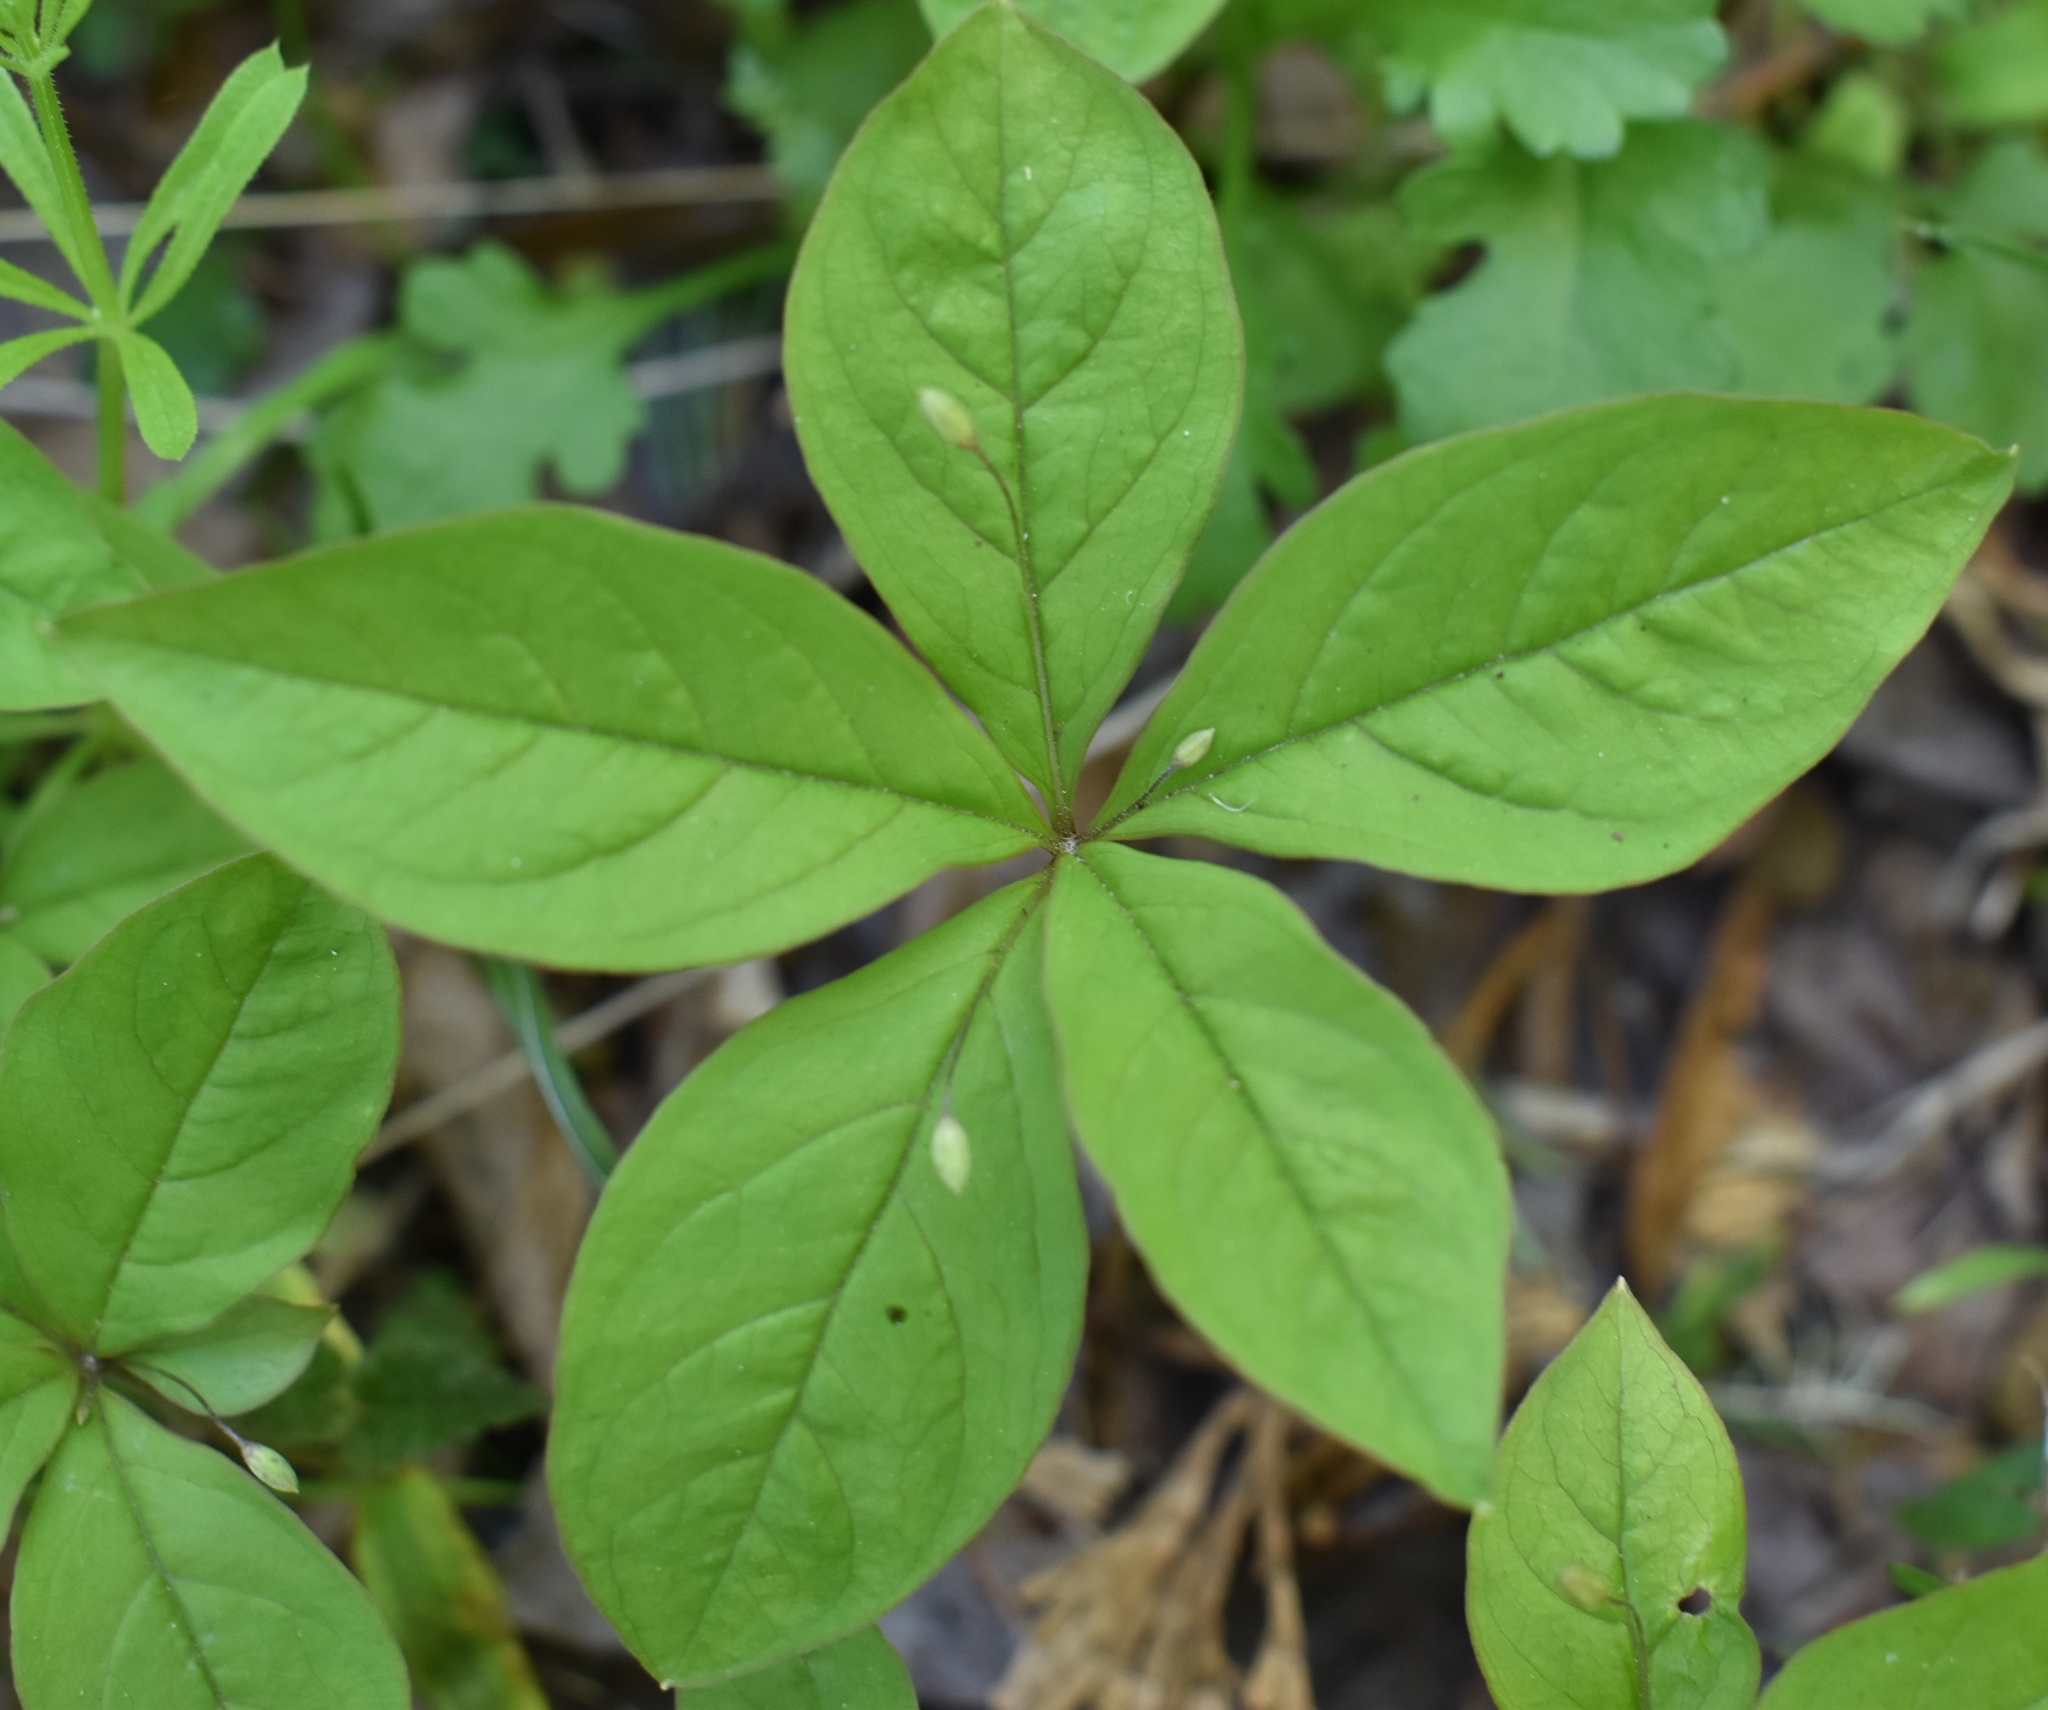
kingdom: Plantae
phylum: Tracheophyta
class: Magnoliopsida
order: Ericales
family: Primulaceae
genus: Lysimachia
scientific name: Lysimachia latifolia
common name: Pacific starflower
